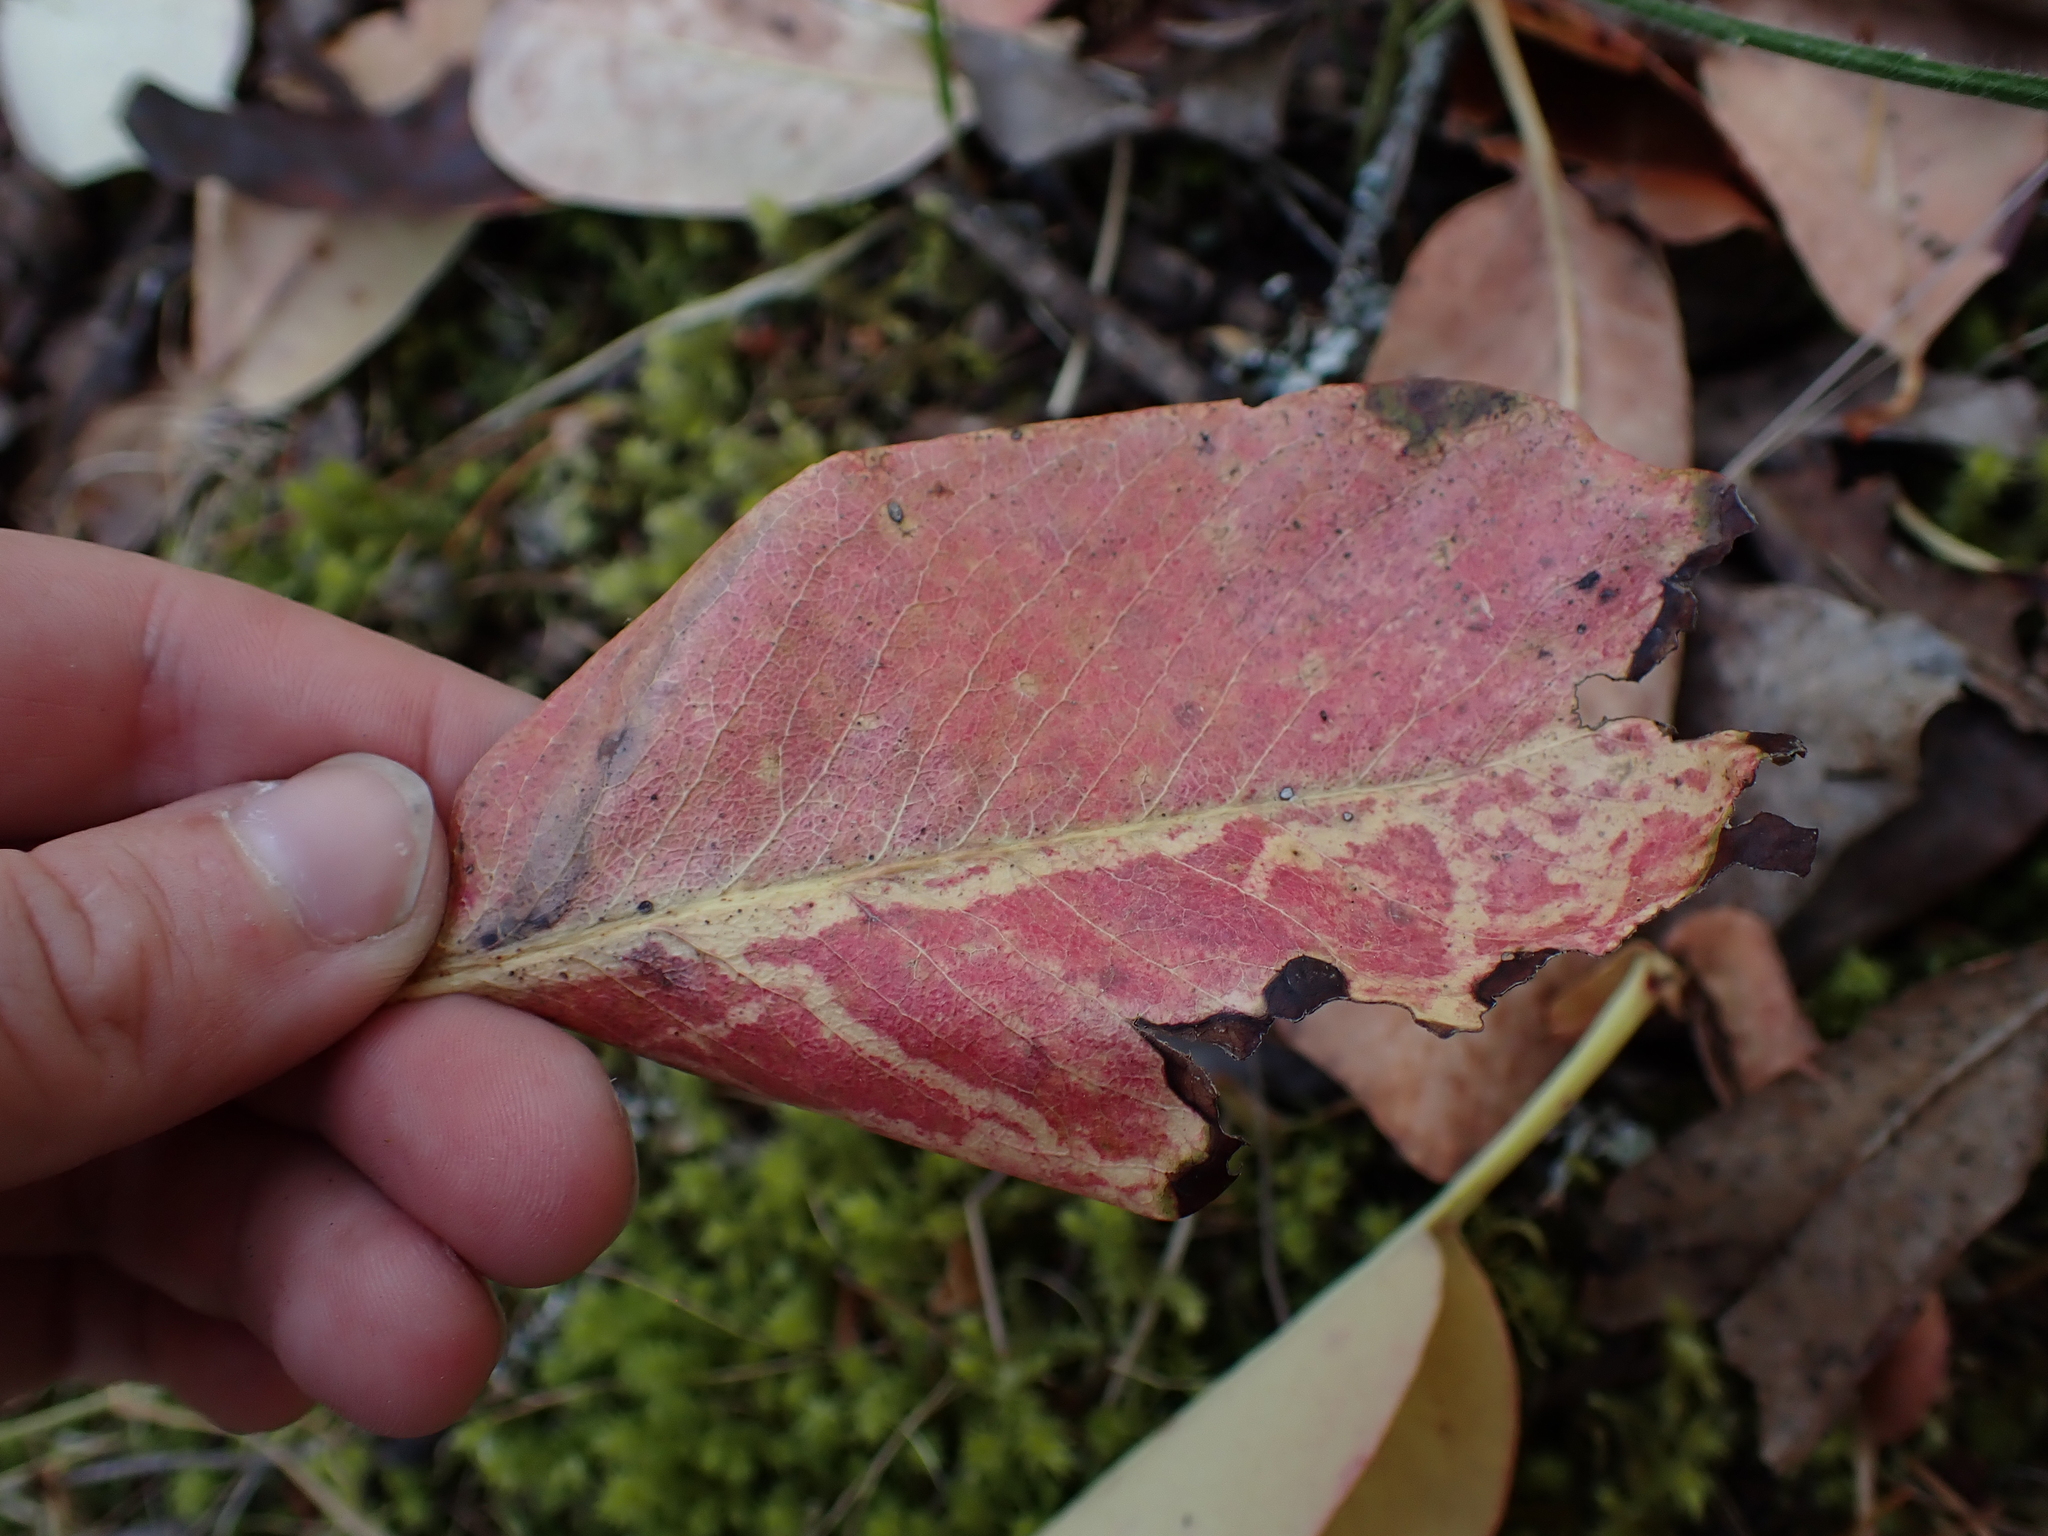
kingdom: Animalia
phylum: Arthropoda
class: Insecta
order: Lepidoptera
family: Gracillariidae
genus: Marmara
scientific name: Marmara arbutiella
